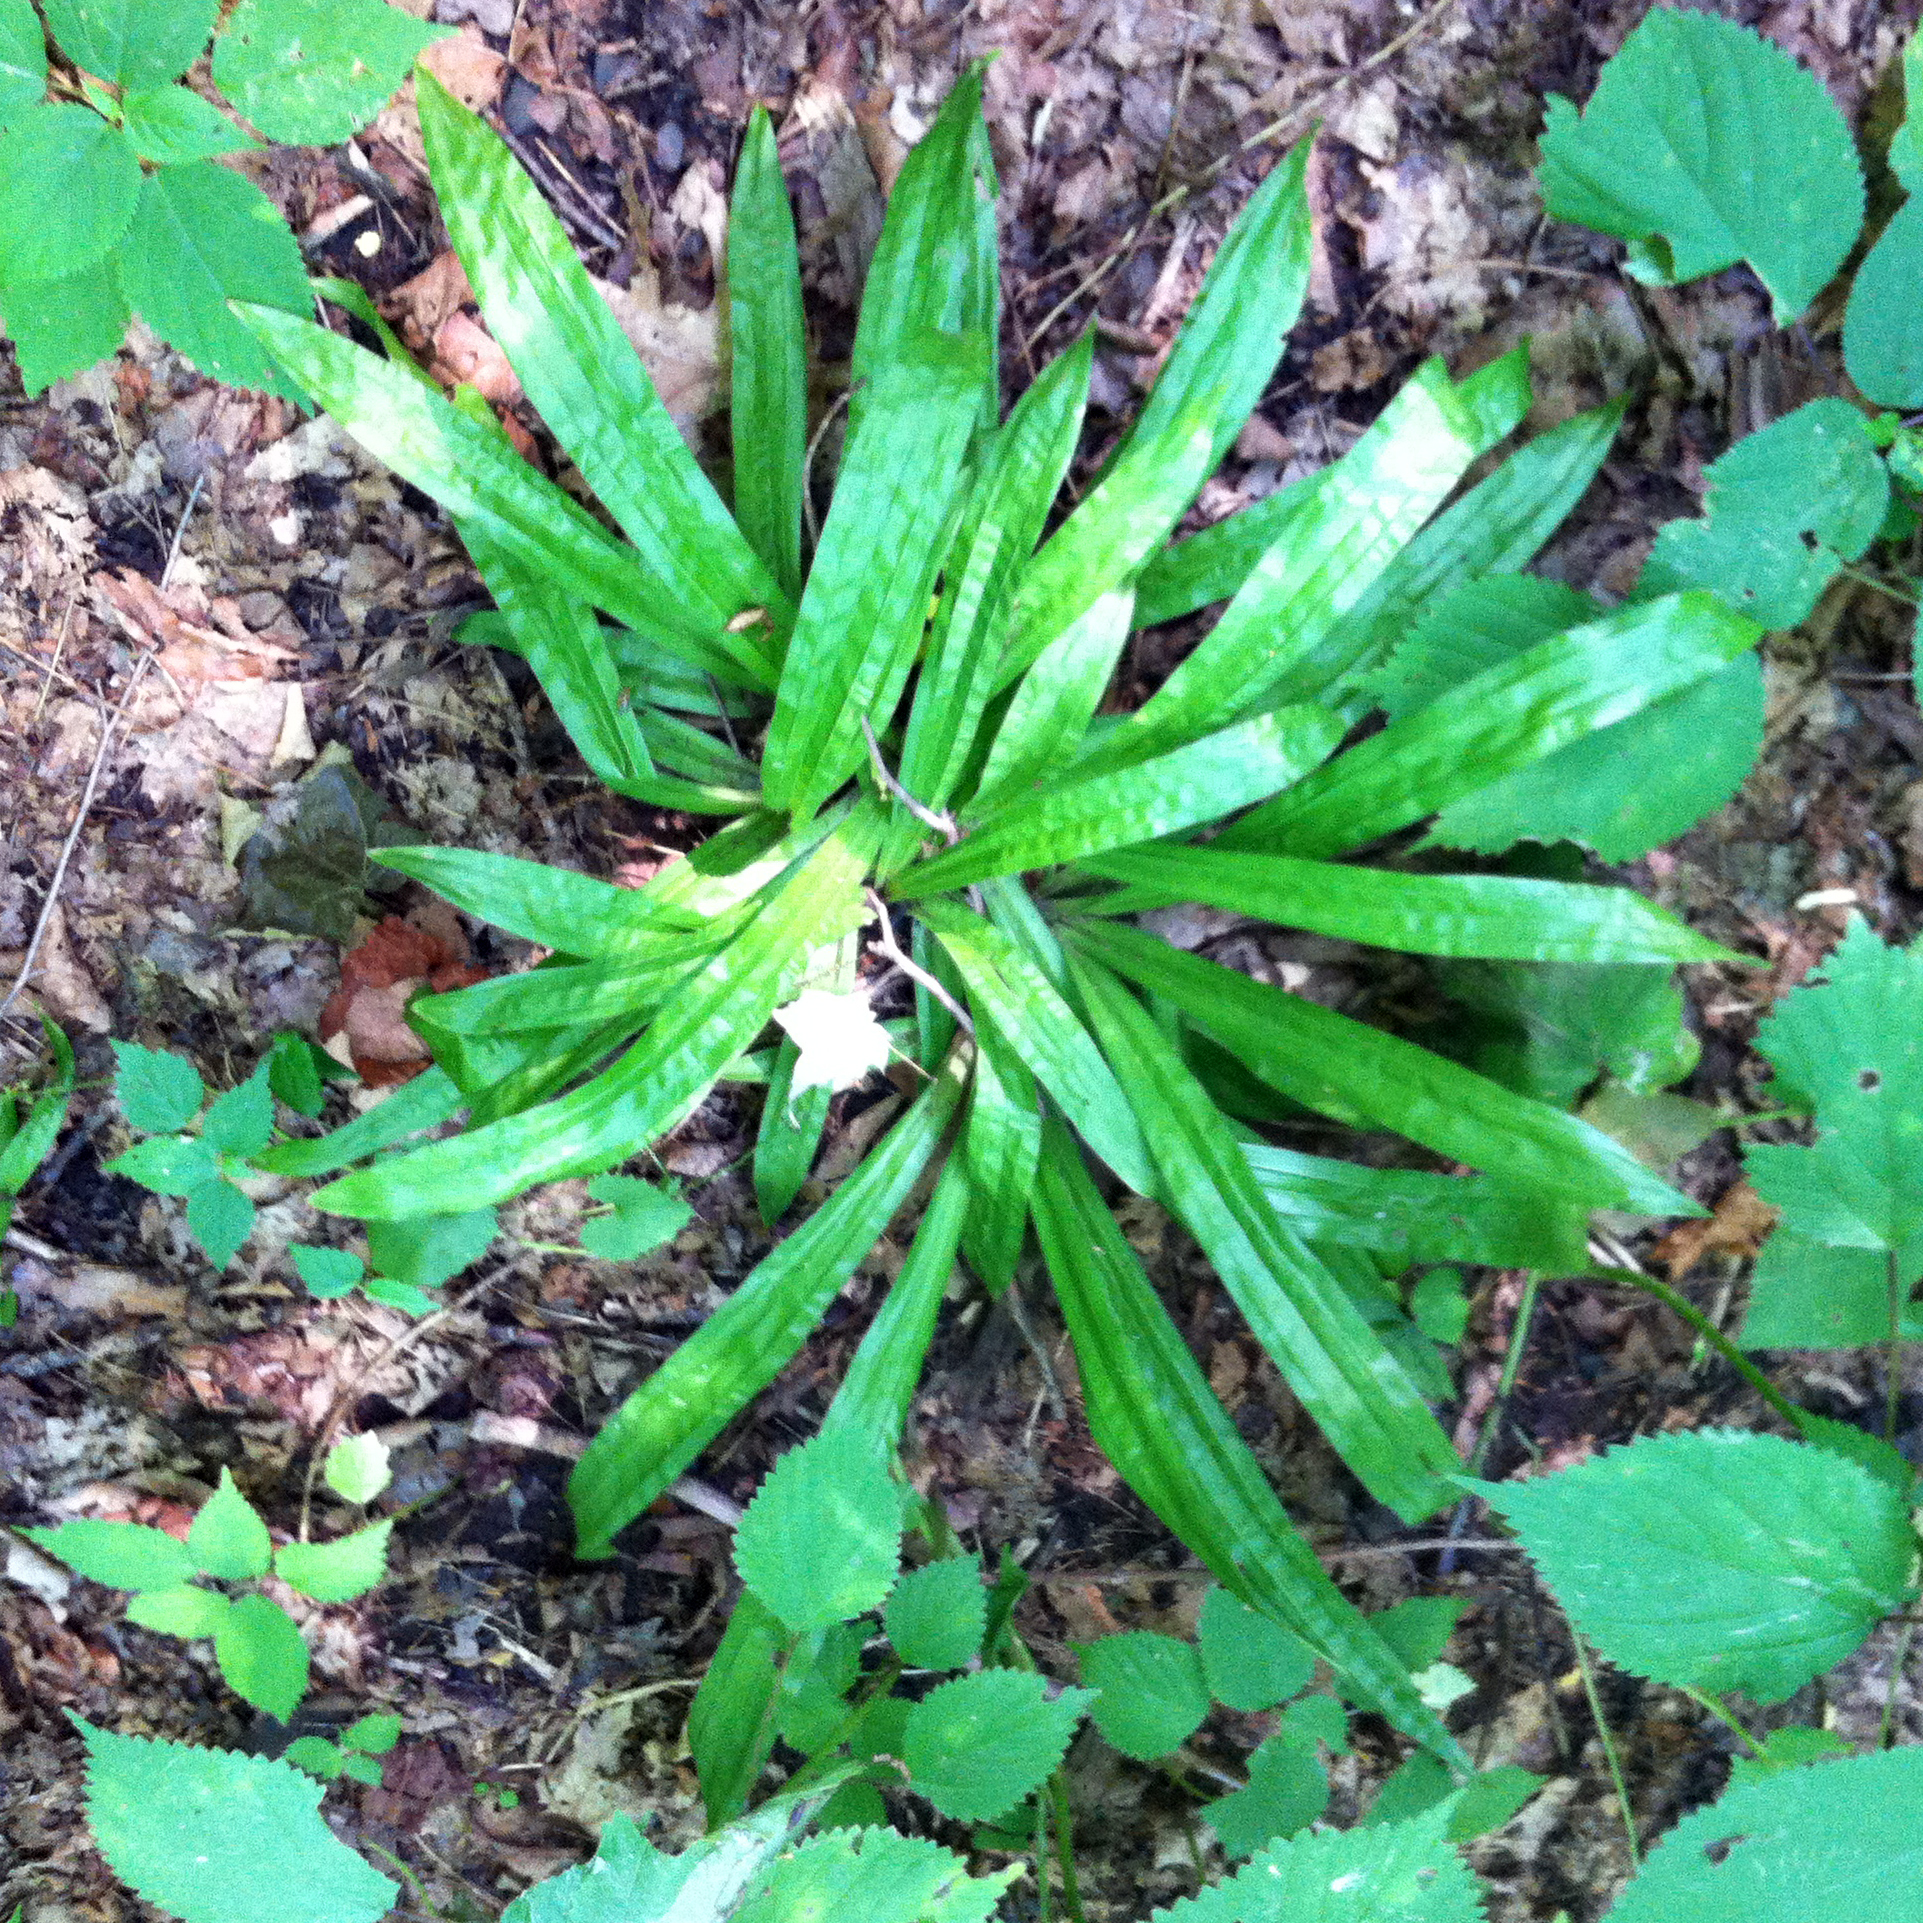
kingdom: Plantae
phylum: Tracheophyta
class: Liliopsida
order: Poales
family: Cyperaceae
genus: Carex
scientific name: Carex plantaginea
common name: Plantain-leaved sedge
